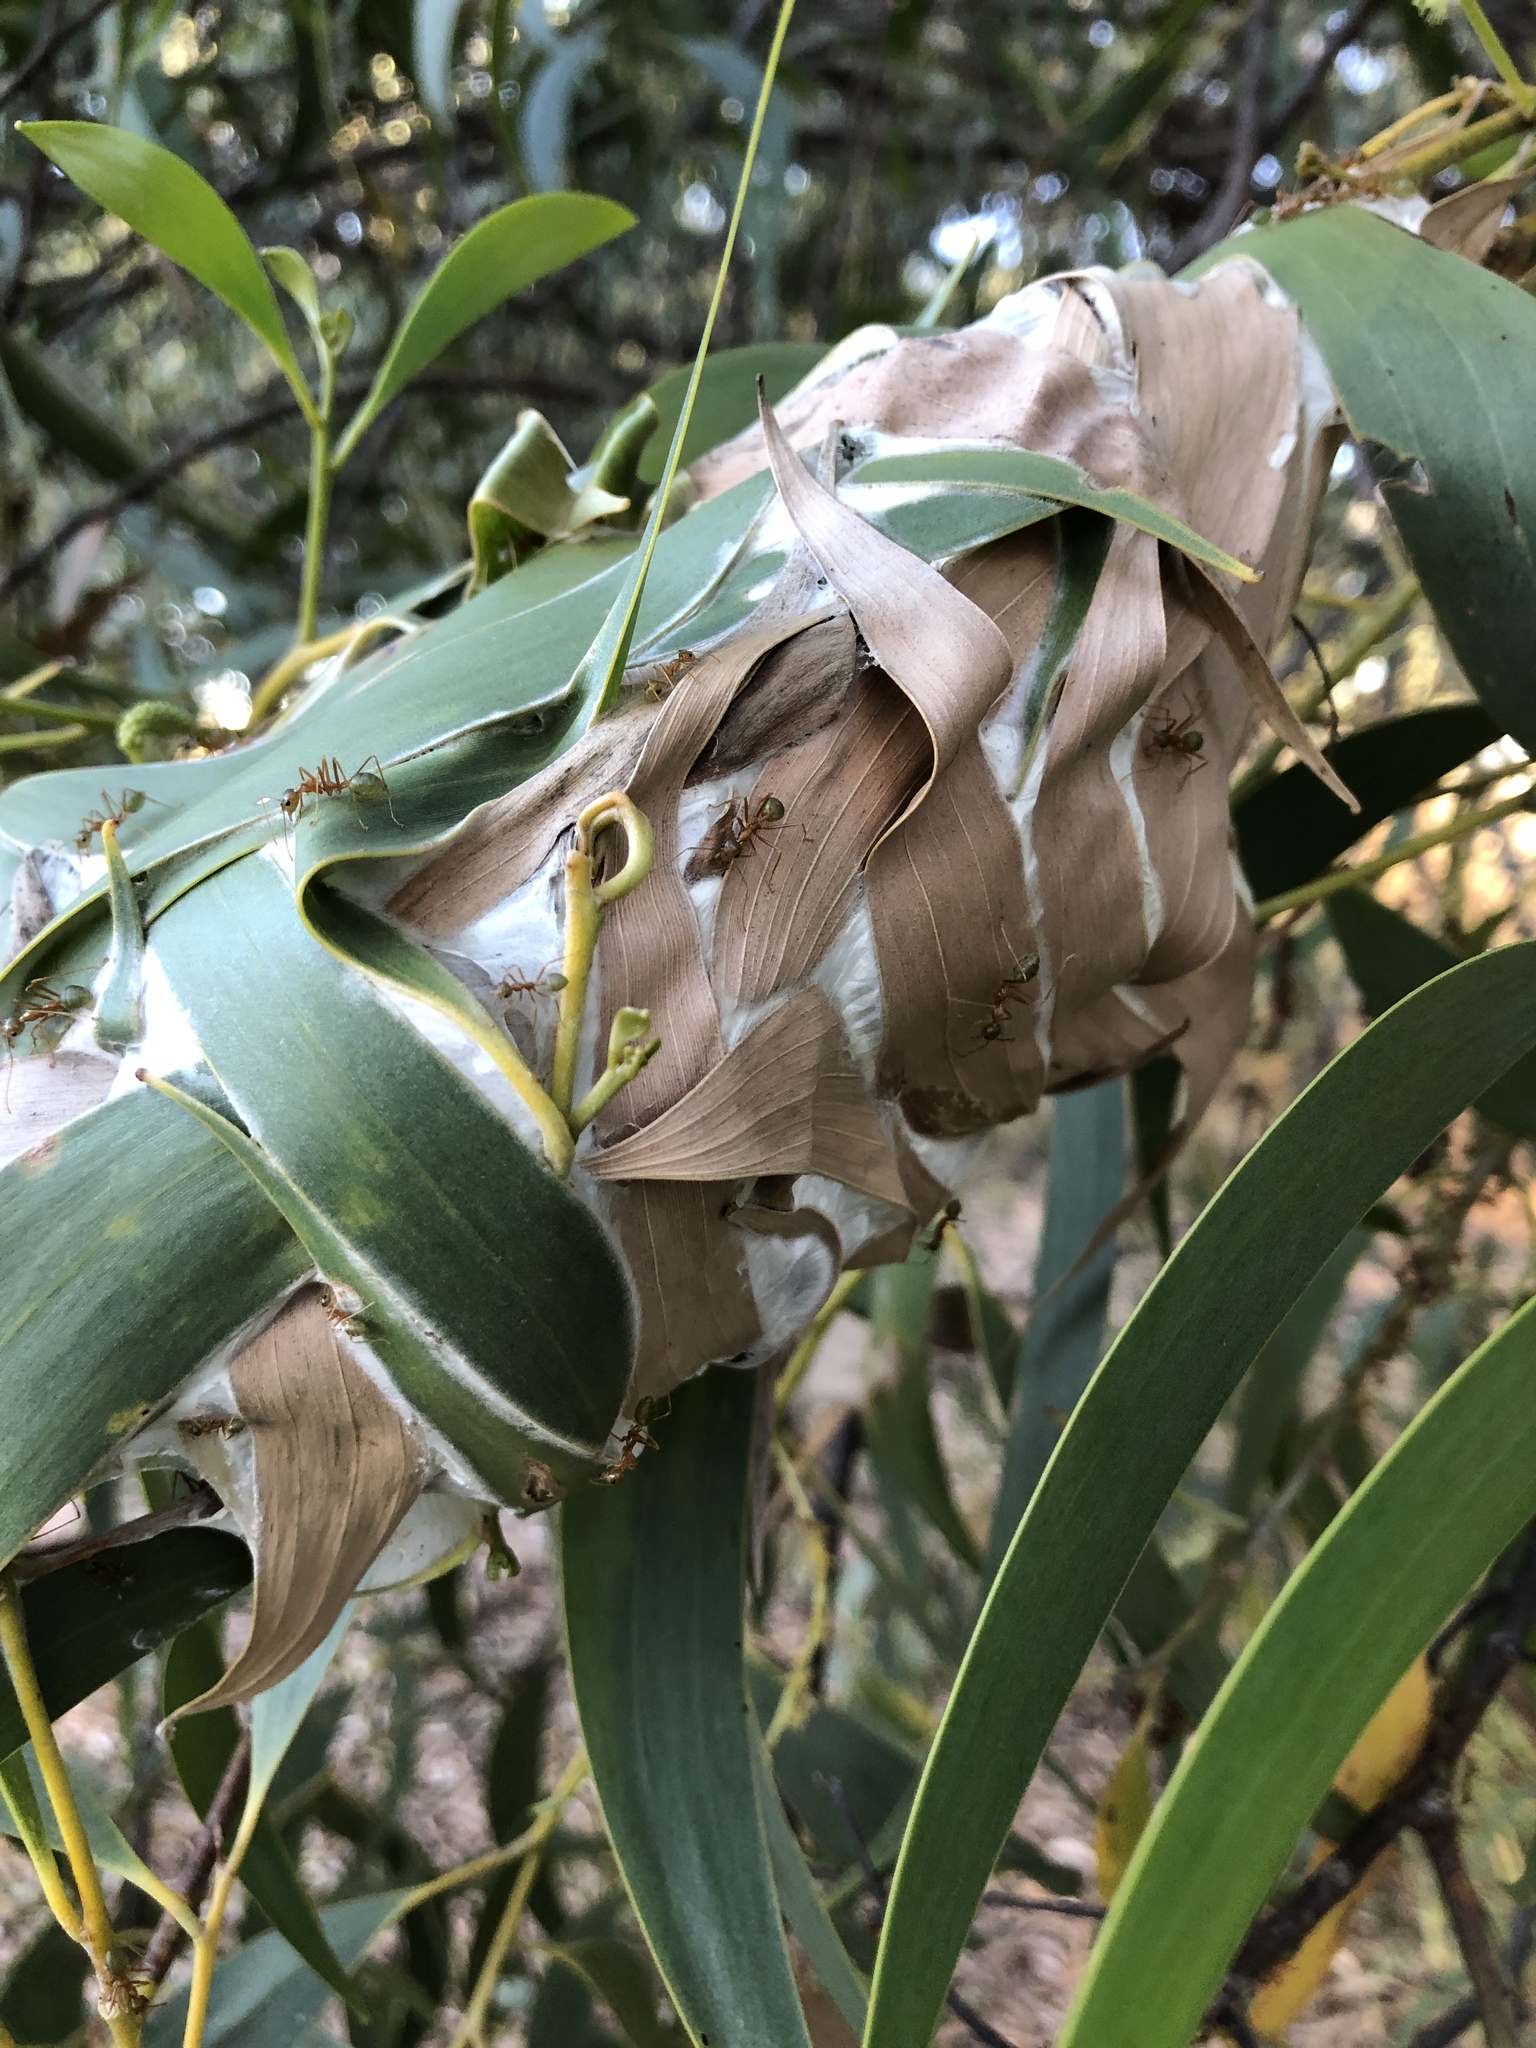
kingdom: Animalia
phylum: Arthropoda
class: Insecta
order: Hymenoptera
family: Formicidae
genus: Oecophylla
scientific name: Oecophylla smaragdina
